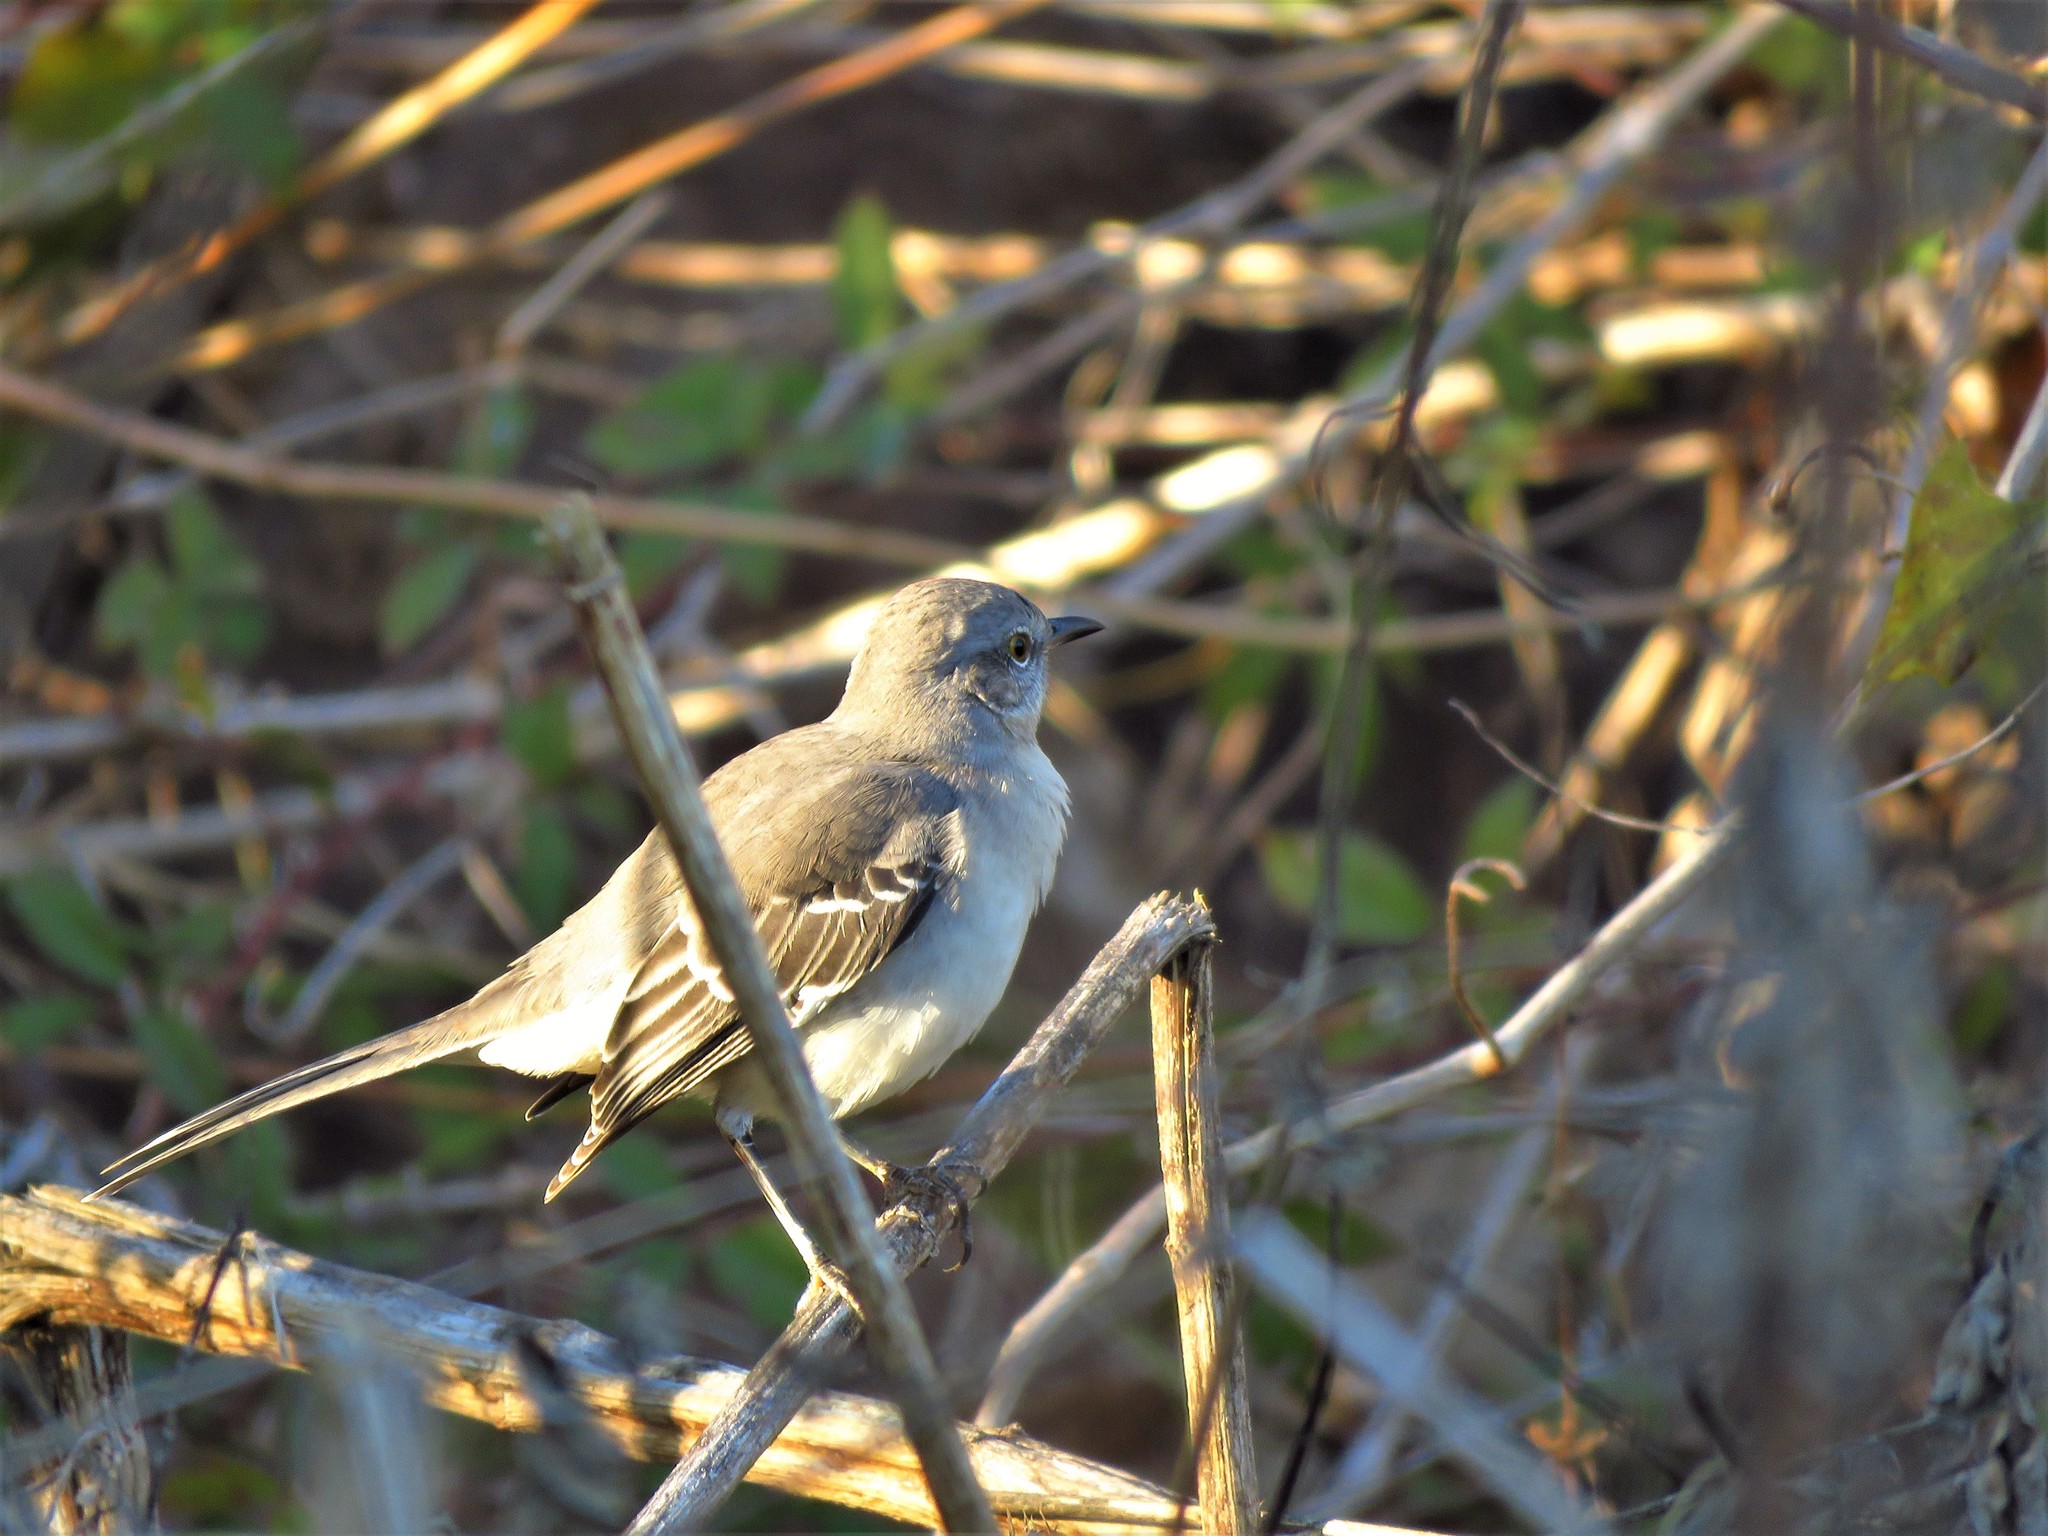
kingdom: Animalia
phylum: Chordata
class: Aves
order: Passeriformes
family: Mimidae
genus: Mimus
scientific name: Mimus polyglottos
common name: Northern mockingbird
